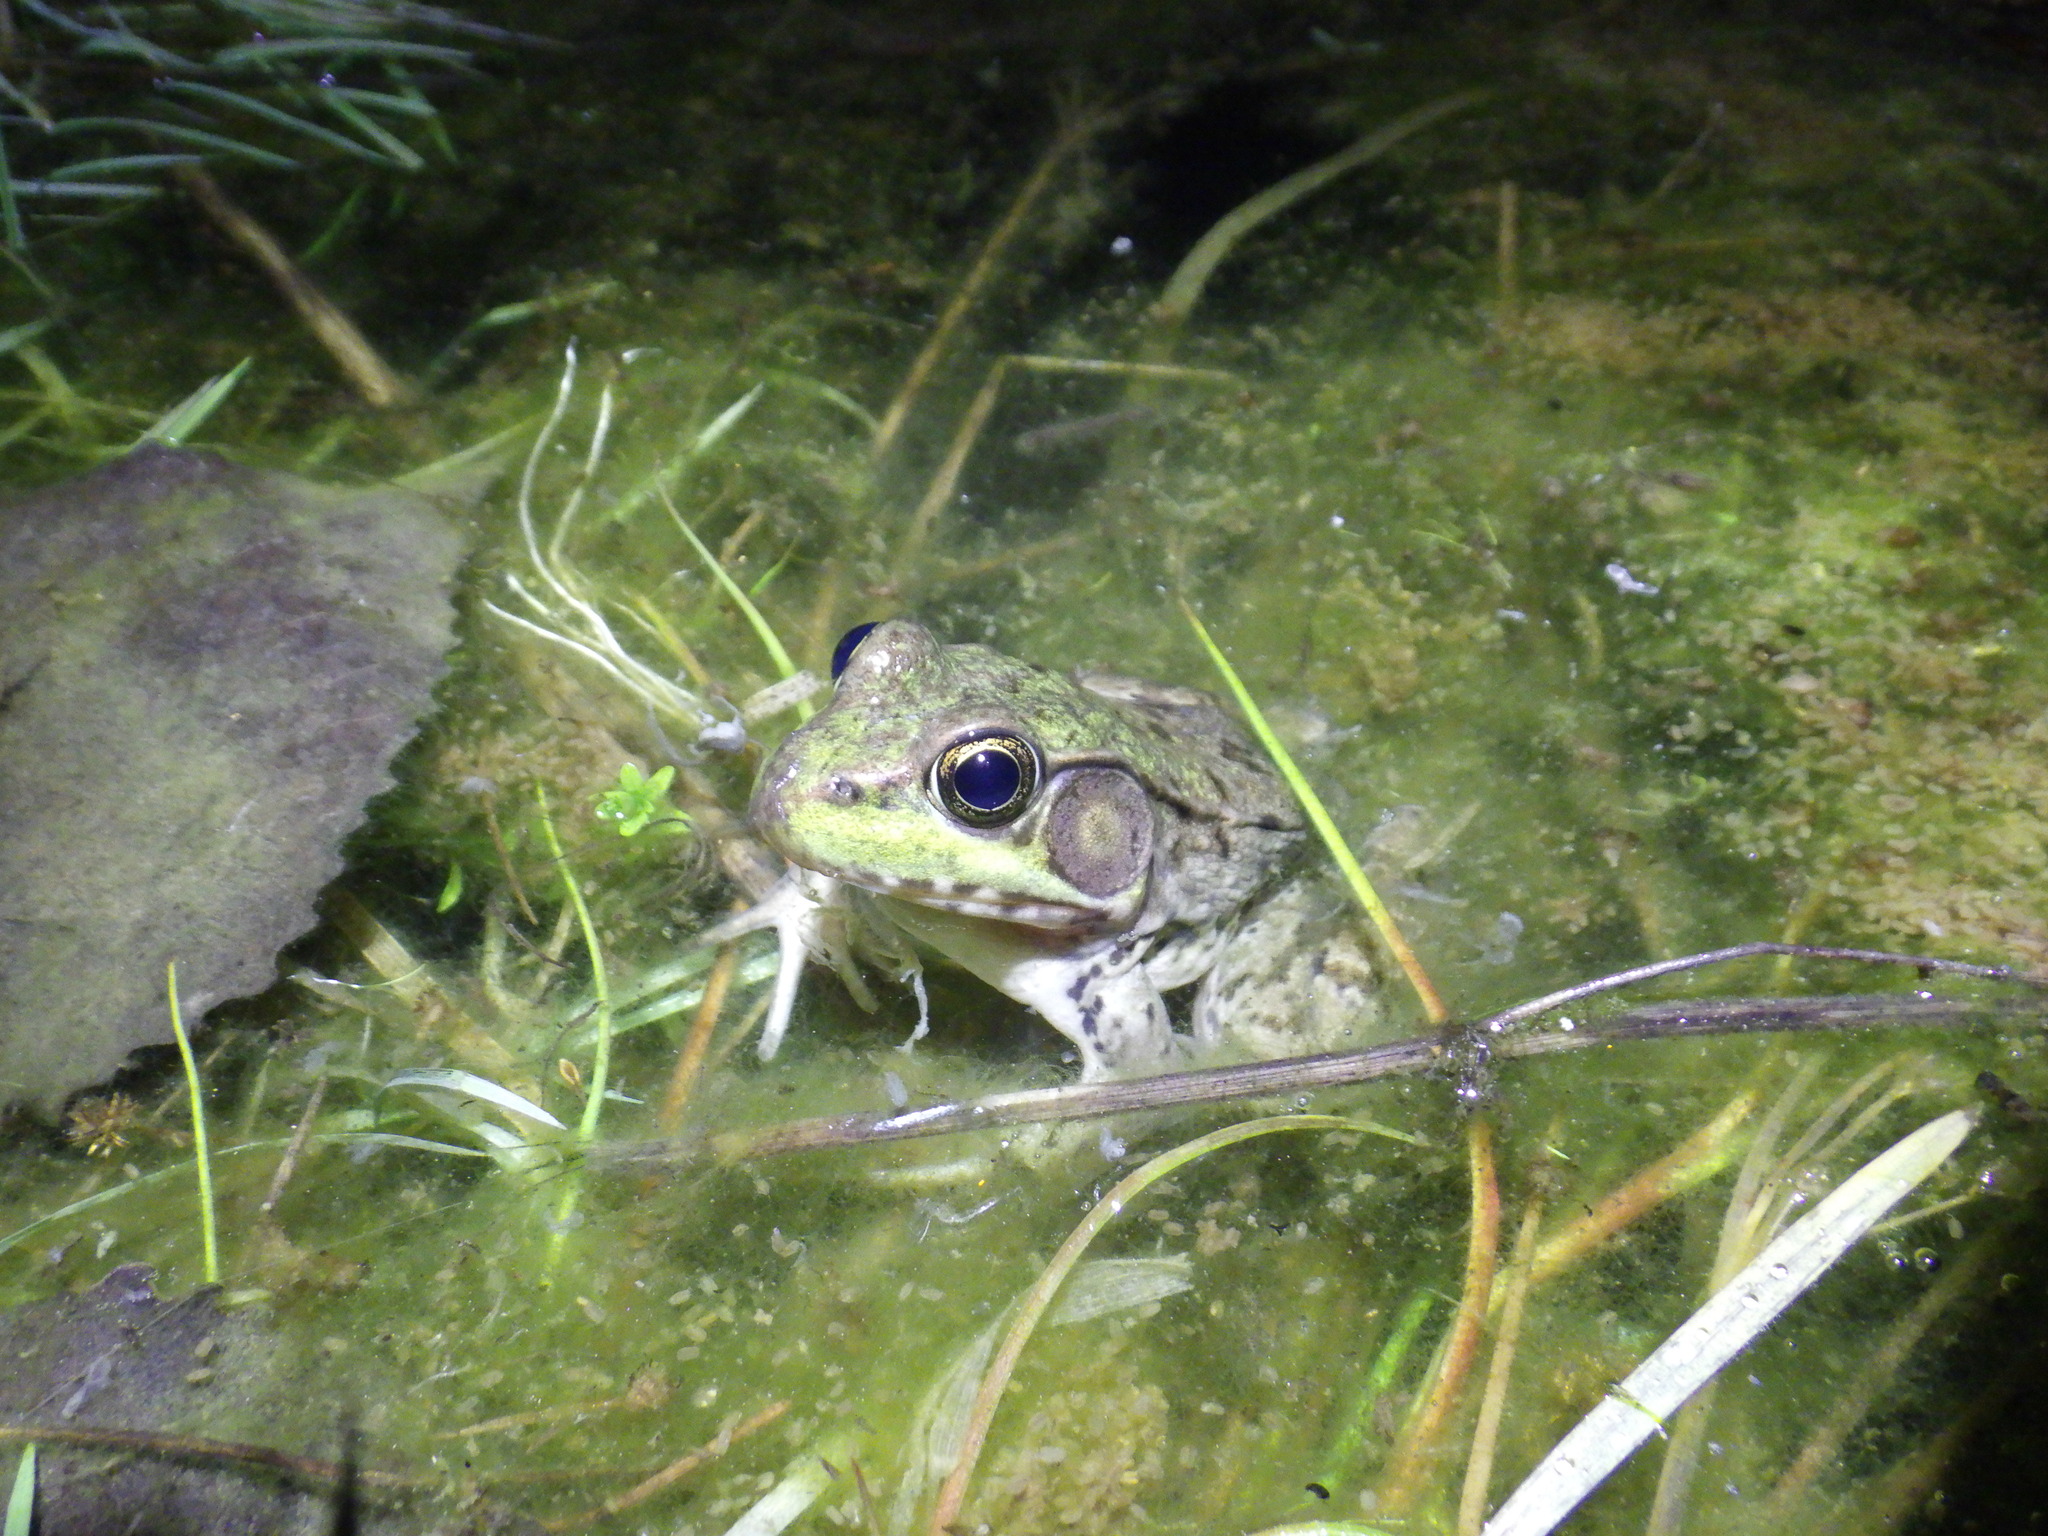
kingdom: Animalia
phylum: Chordata
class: Amphibia
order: Anura
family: Ranidae
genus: Lithobates
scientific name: Lithobates clamitans
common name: Green frog
